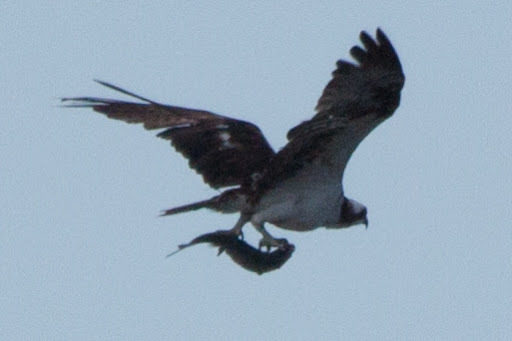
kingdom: Animalia
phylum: Chordata
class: Aves
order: Accipitriformes
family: Pandionidae
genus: Pandion
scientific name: Pandion haliaetus
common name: Osprey
